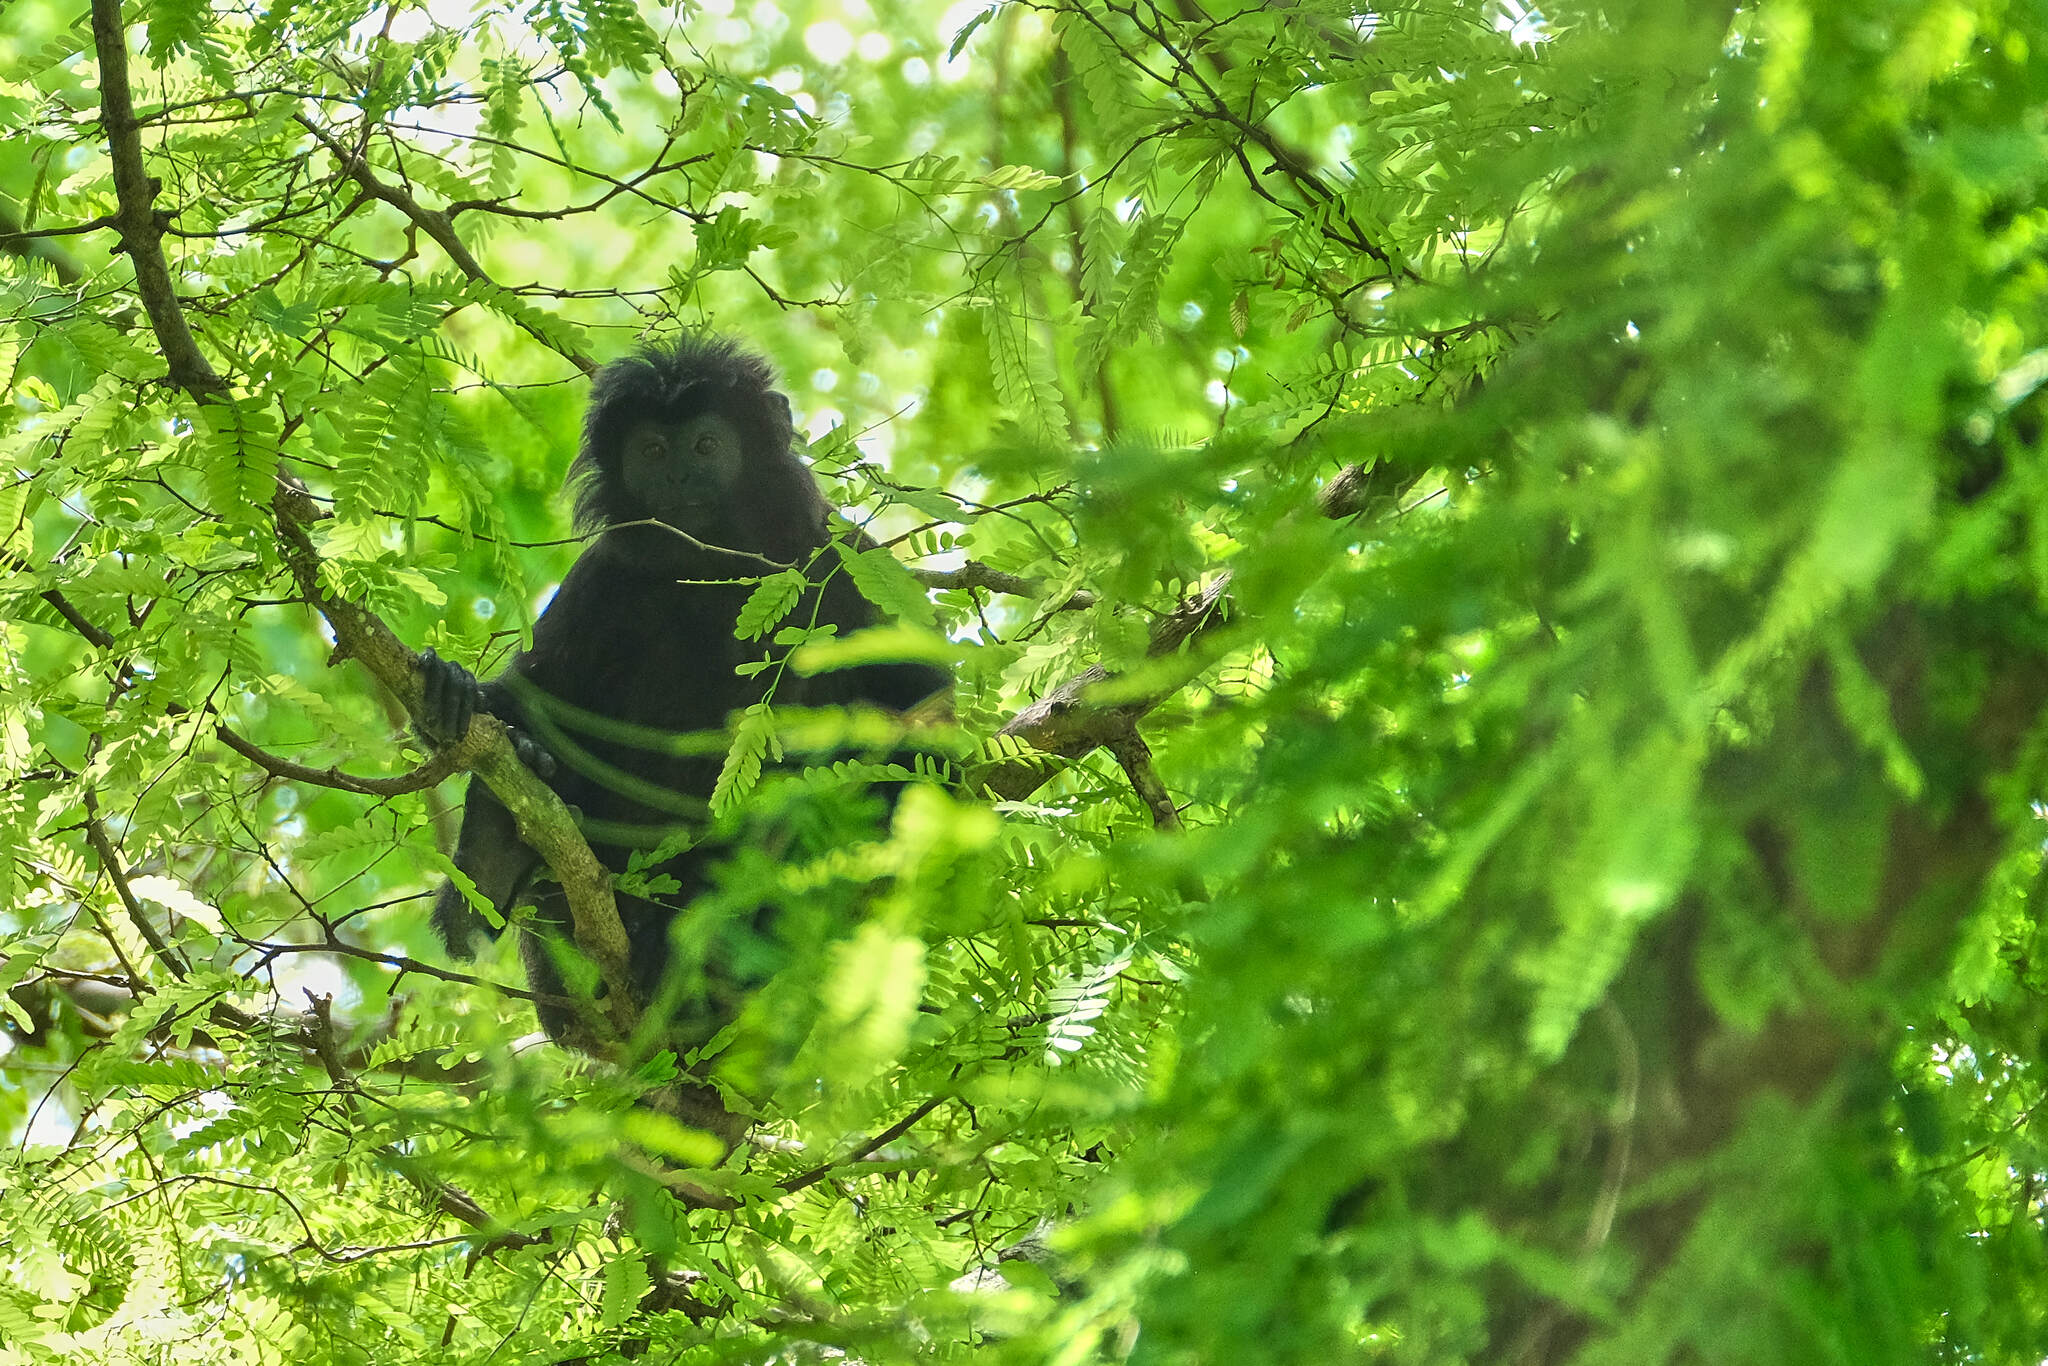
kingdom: Animalia
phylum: Chordata
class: Mammalia
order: Primates
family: Cercopithecidae
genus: Trachypithecus
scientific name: Trachypithecus auratus
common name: Javan lutung
